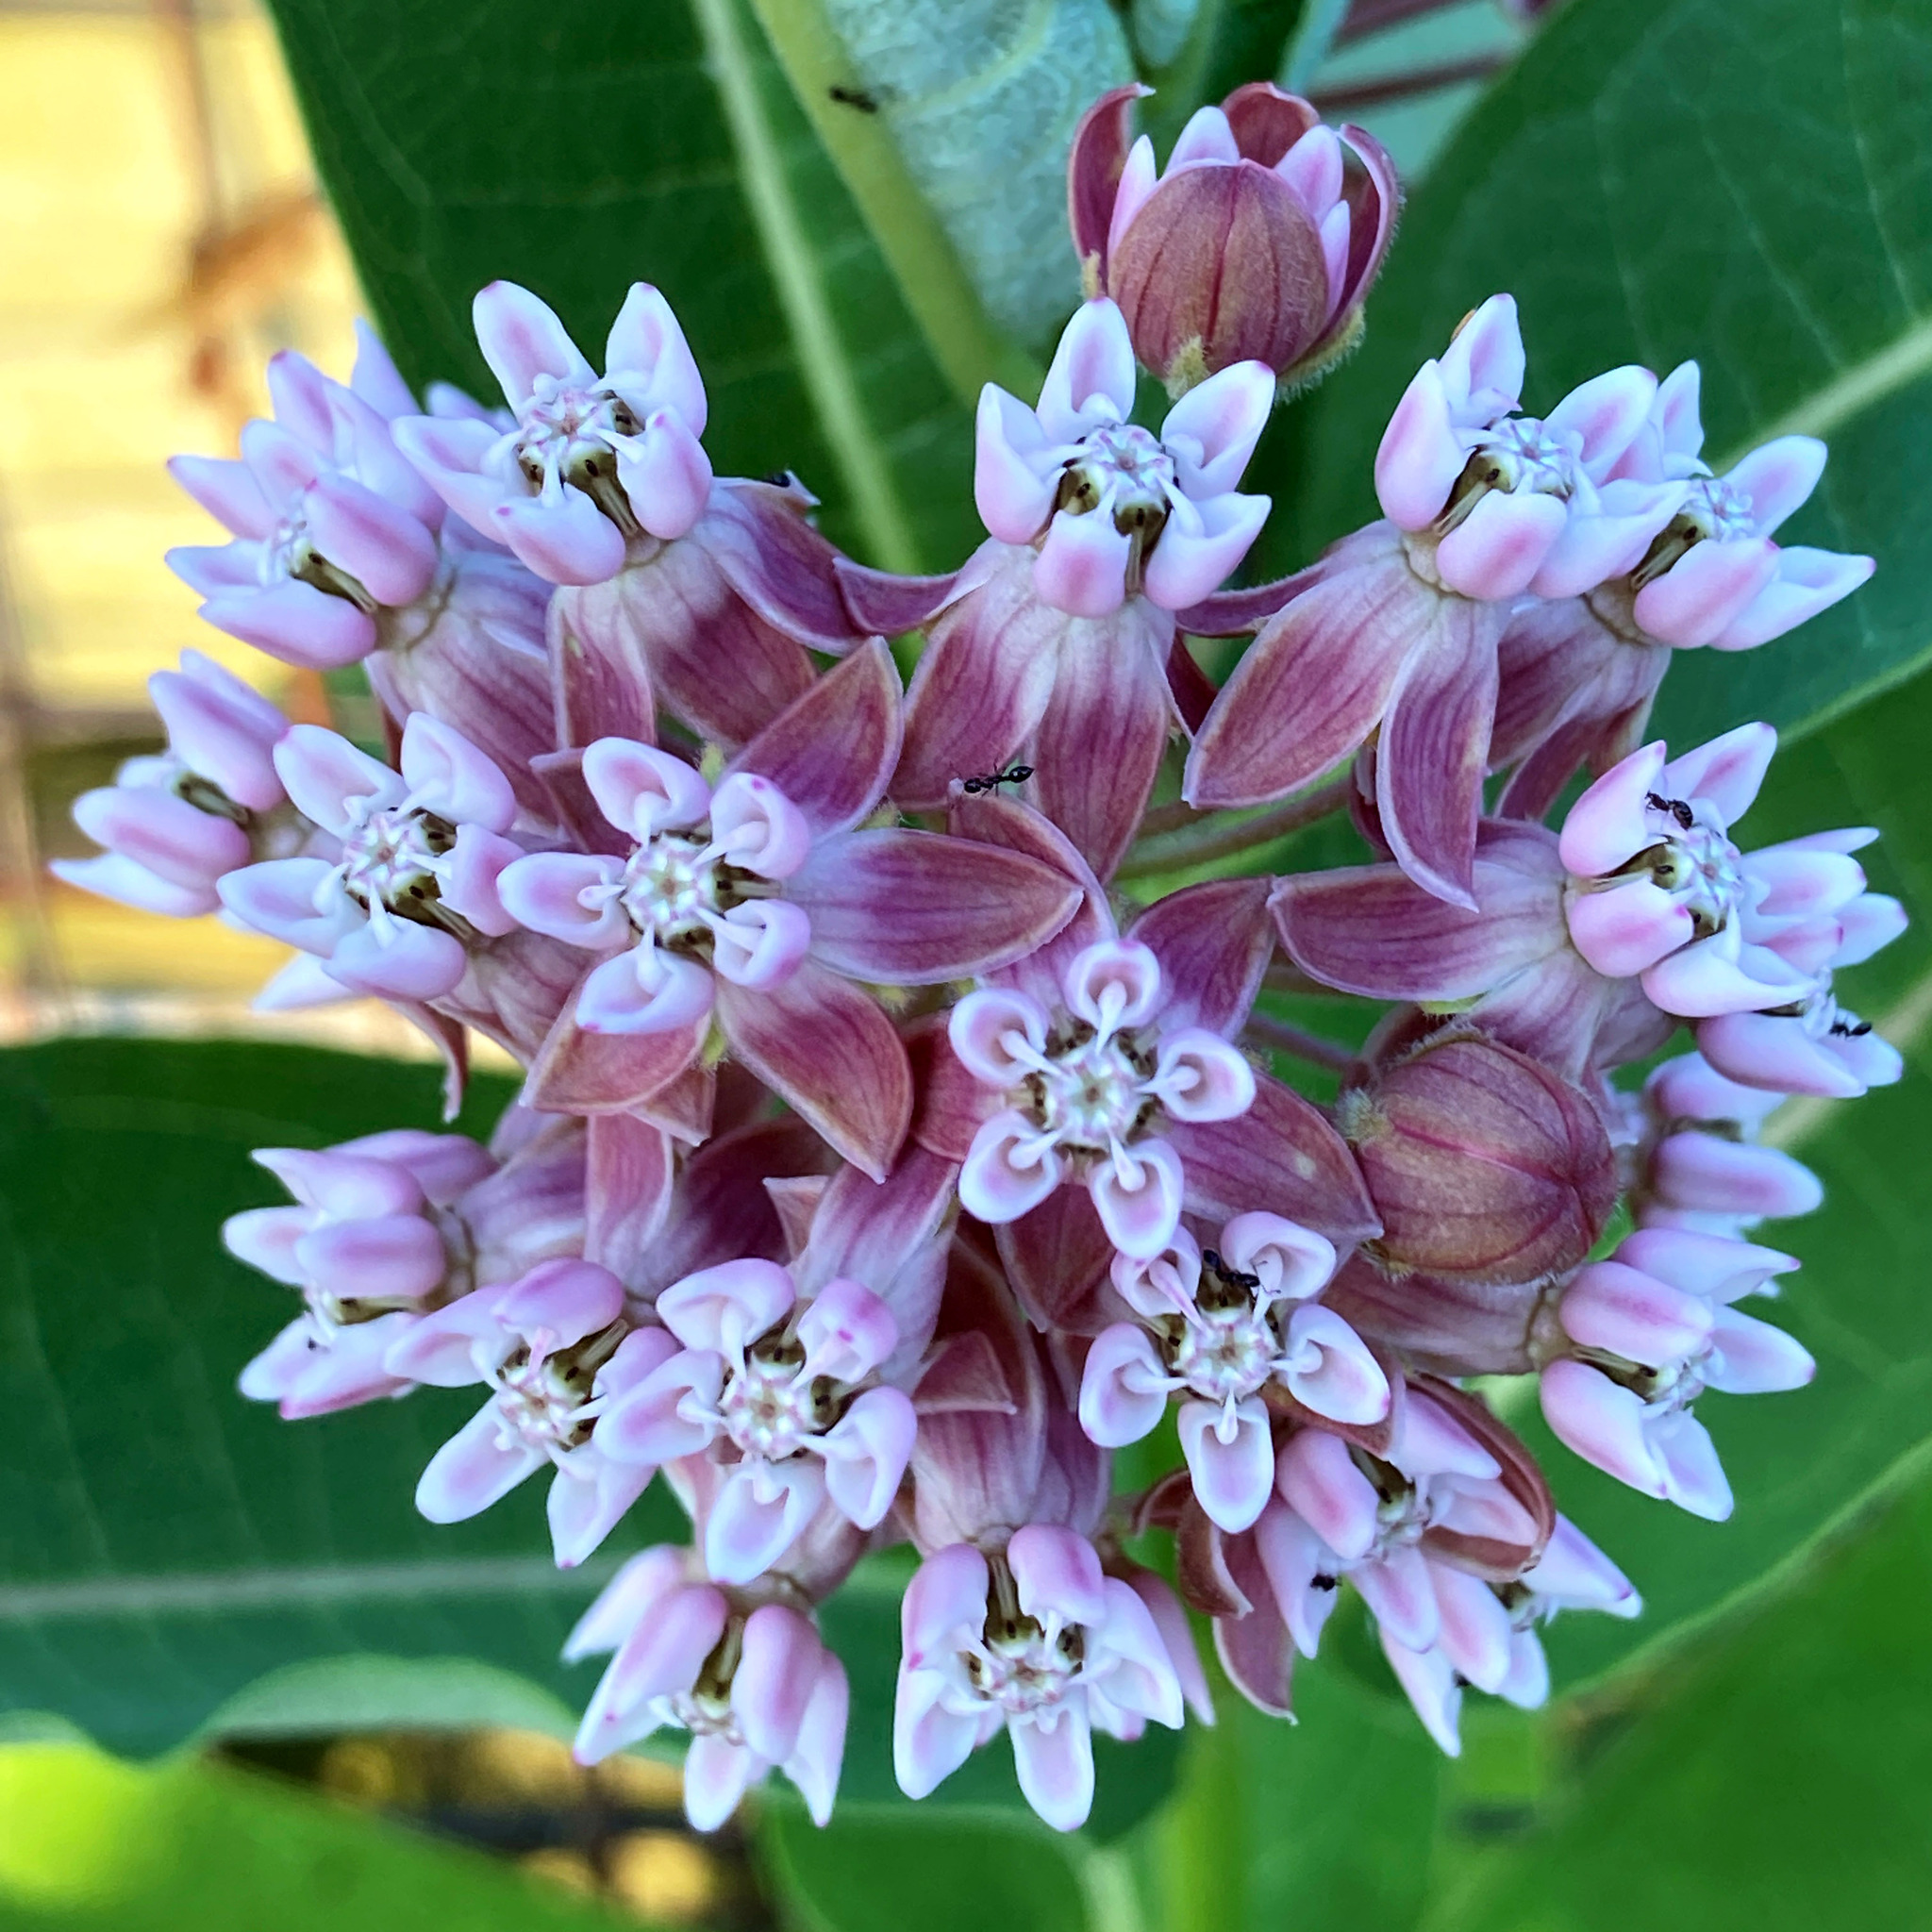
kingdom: Plantae
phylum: Tracheophyta
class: Magnoliopsida
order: Gentianales
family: Apocynaceae
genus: Asclepias
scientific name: Asclepias syriaca
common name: Common milkweed
